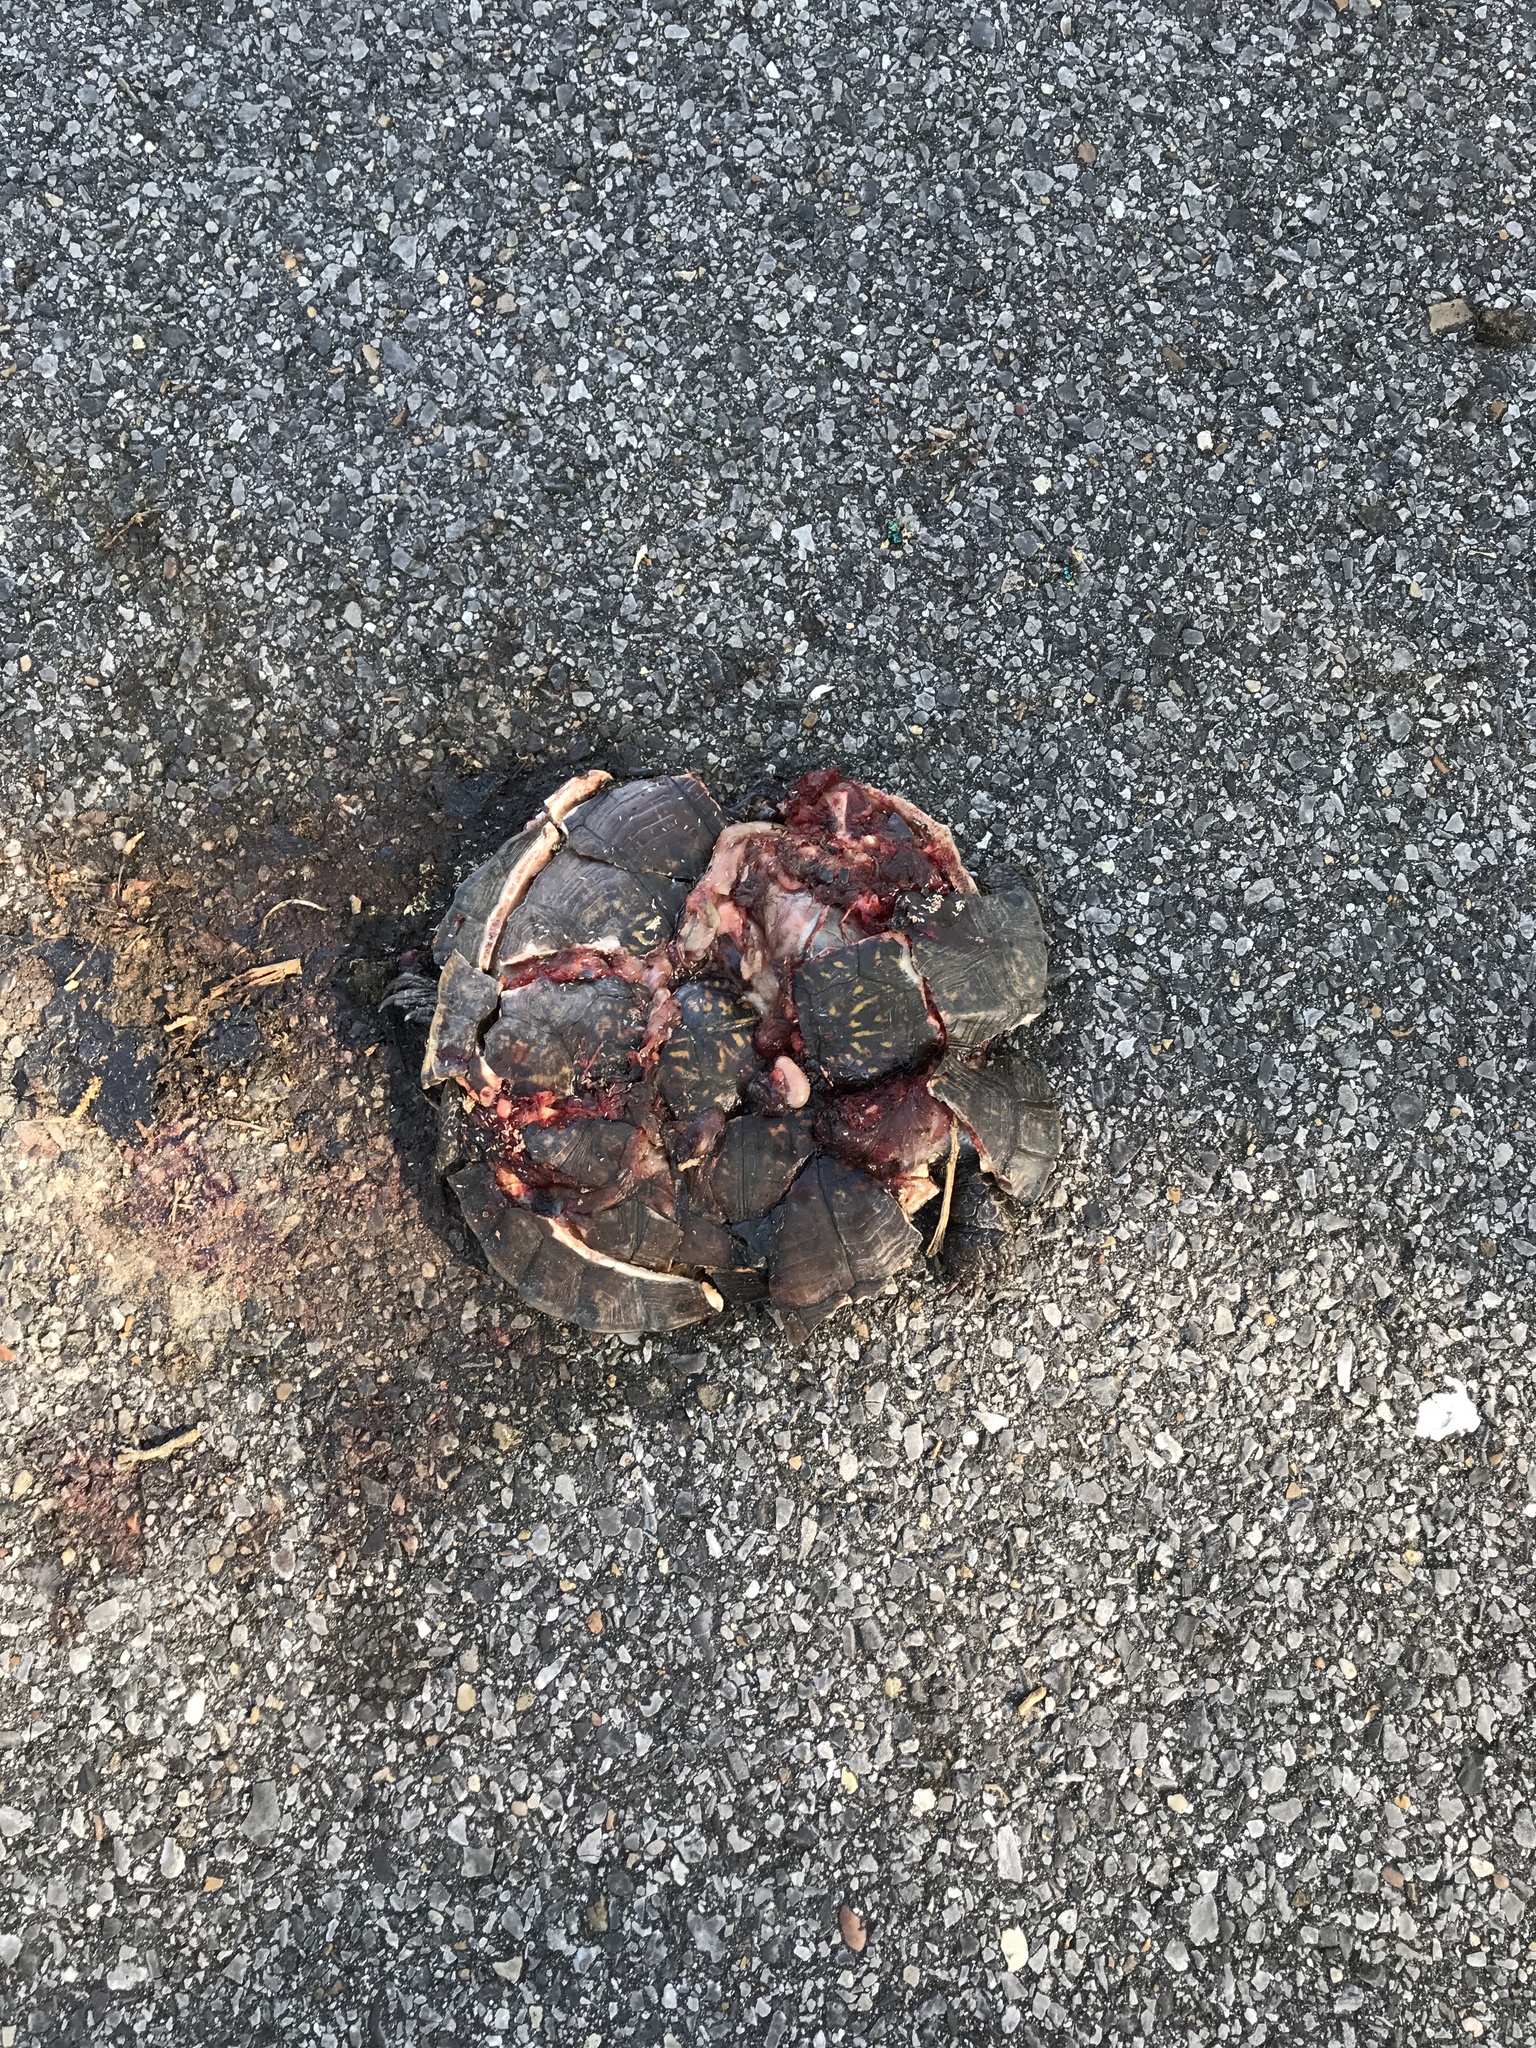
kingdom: Animalia
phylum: Chordata
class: Testudines
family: Emydidae
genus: Terrapene
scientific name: Terrapene carolina
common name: Common box turtle
